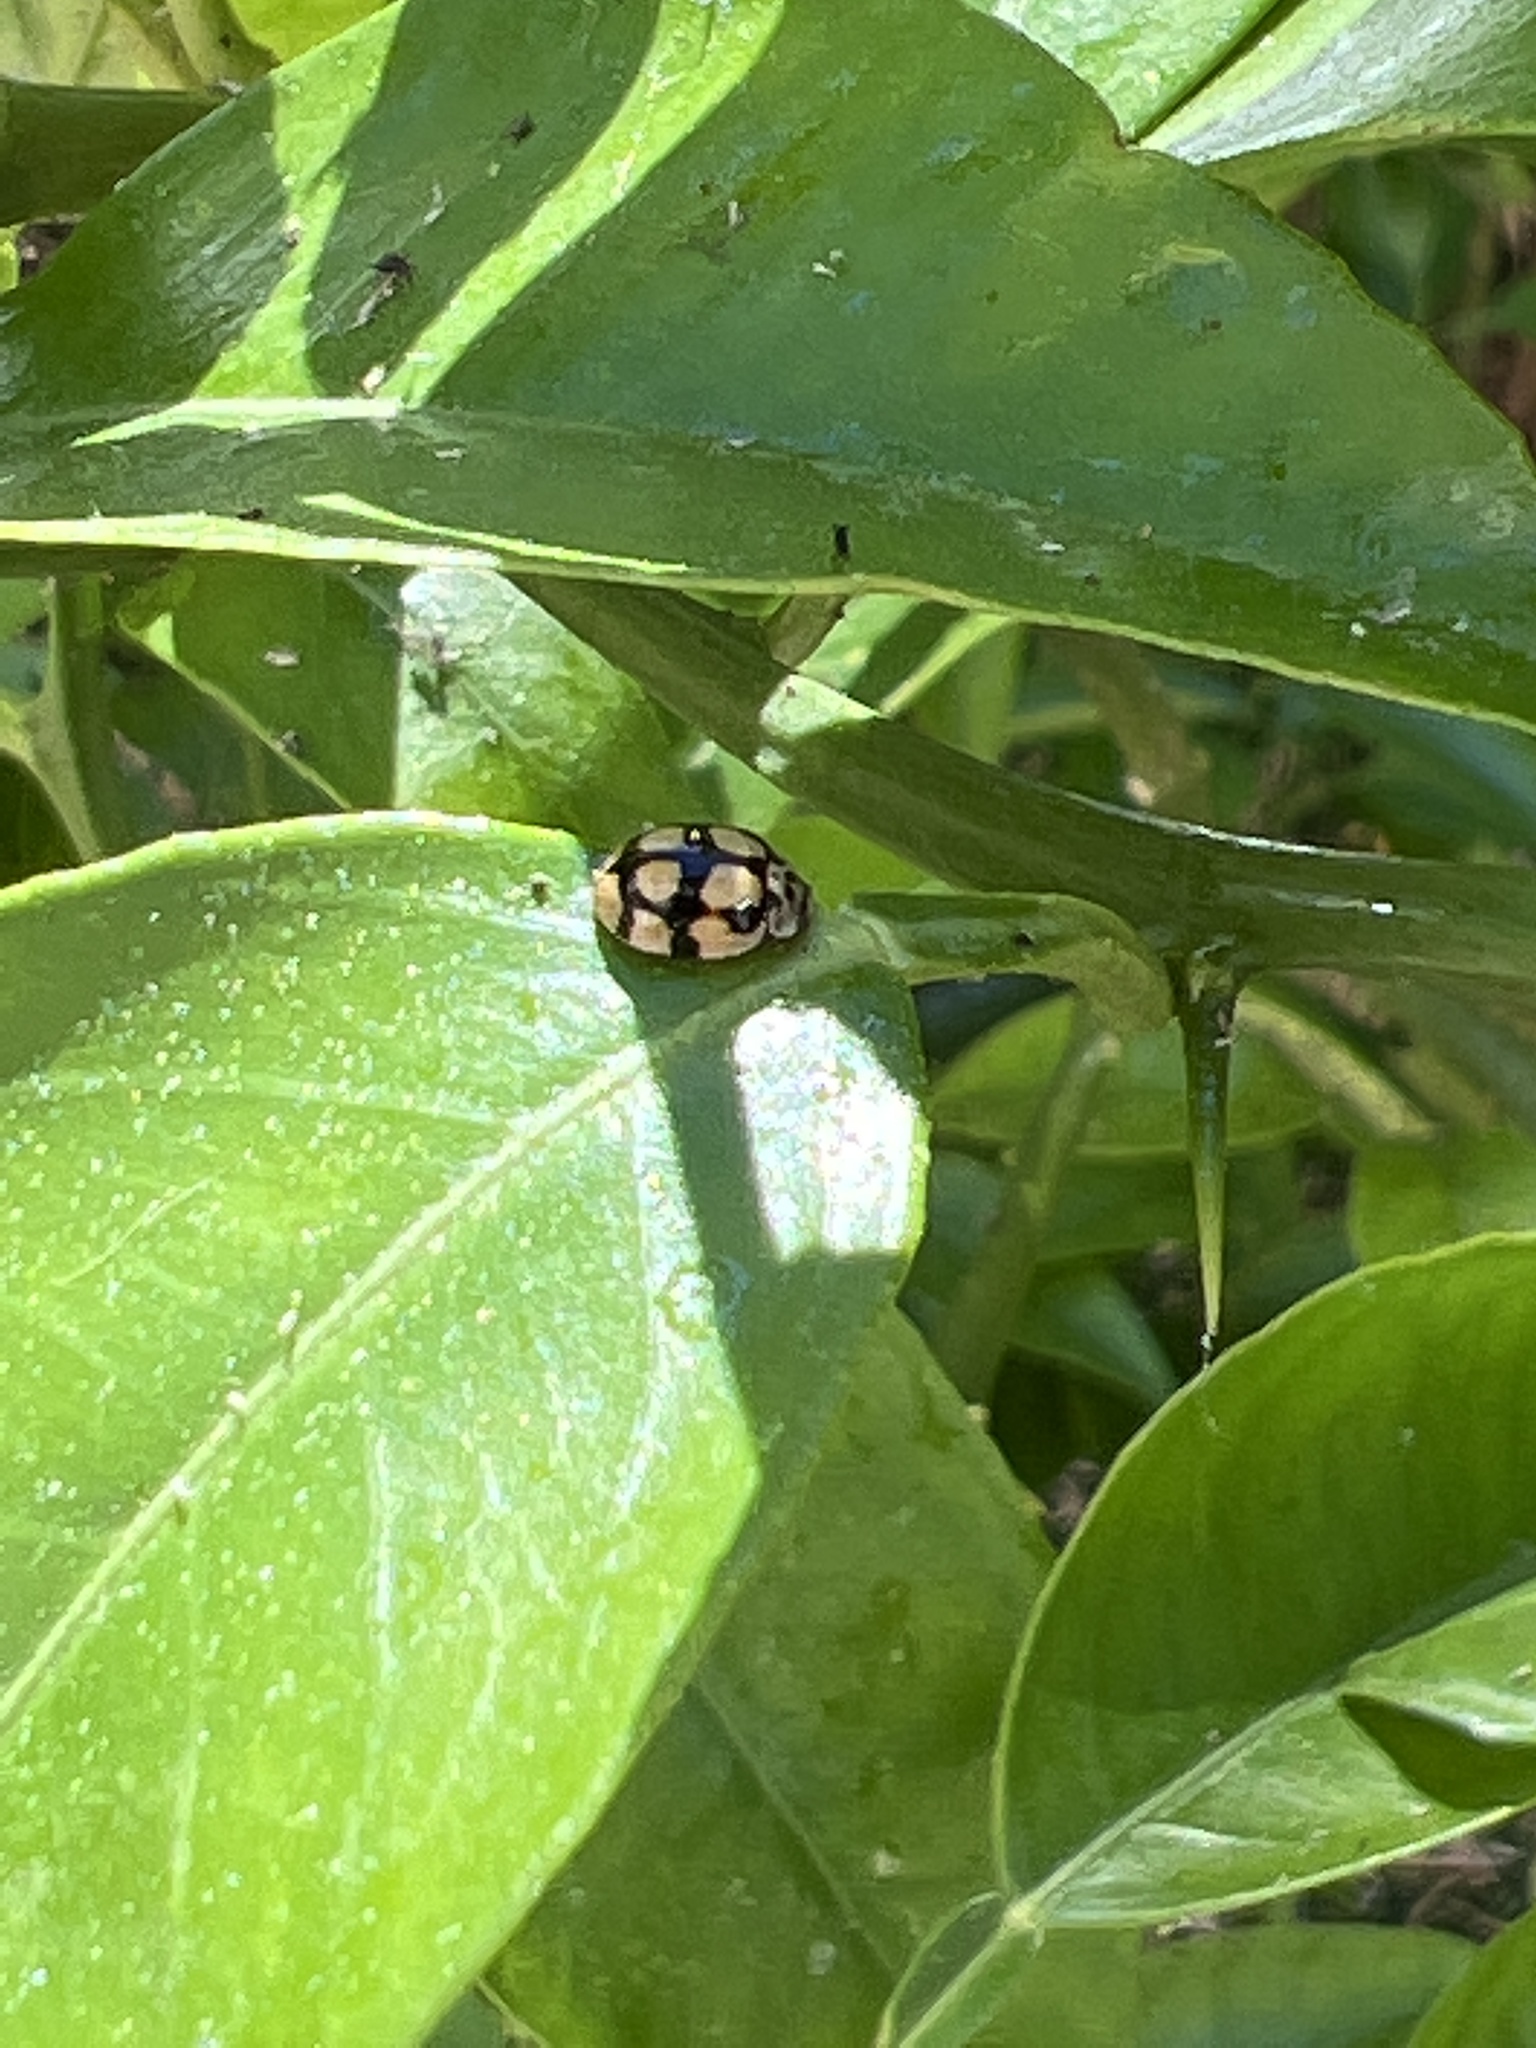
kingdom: Animalia
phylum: Arthropoda
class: Insecta
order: Coleoptera
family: Coccinellidae
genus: Adalia
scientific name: Adalia decempunctata
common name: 10-spot ladybird
